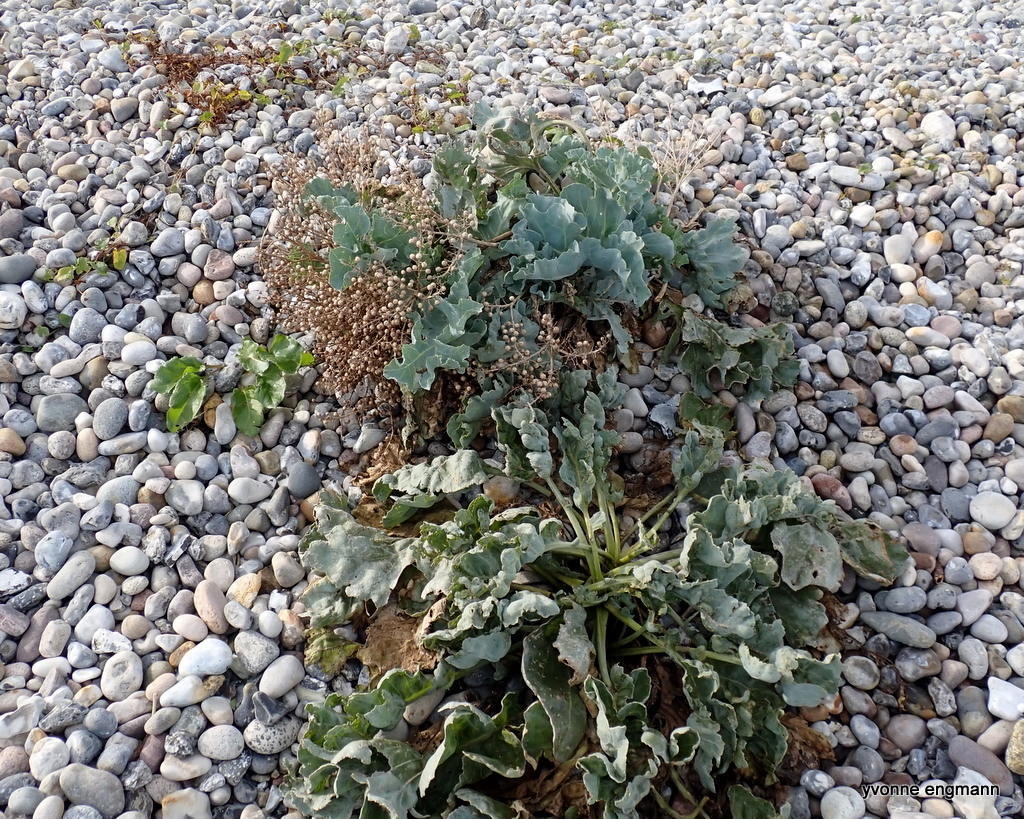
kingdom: Plantae
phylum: Tracheophyta
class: Magnoliopsida
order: Brassicales
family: Brassicaceae
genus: Crambe
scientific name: Crambe maritima
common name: Sea-kale
